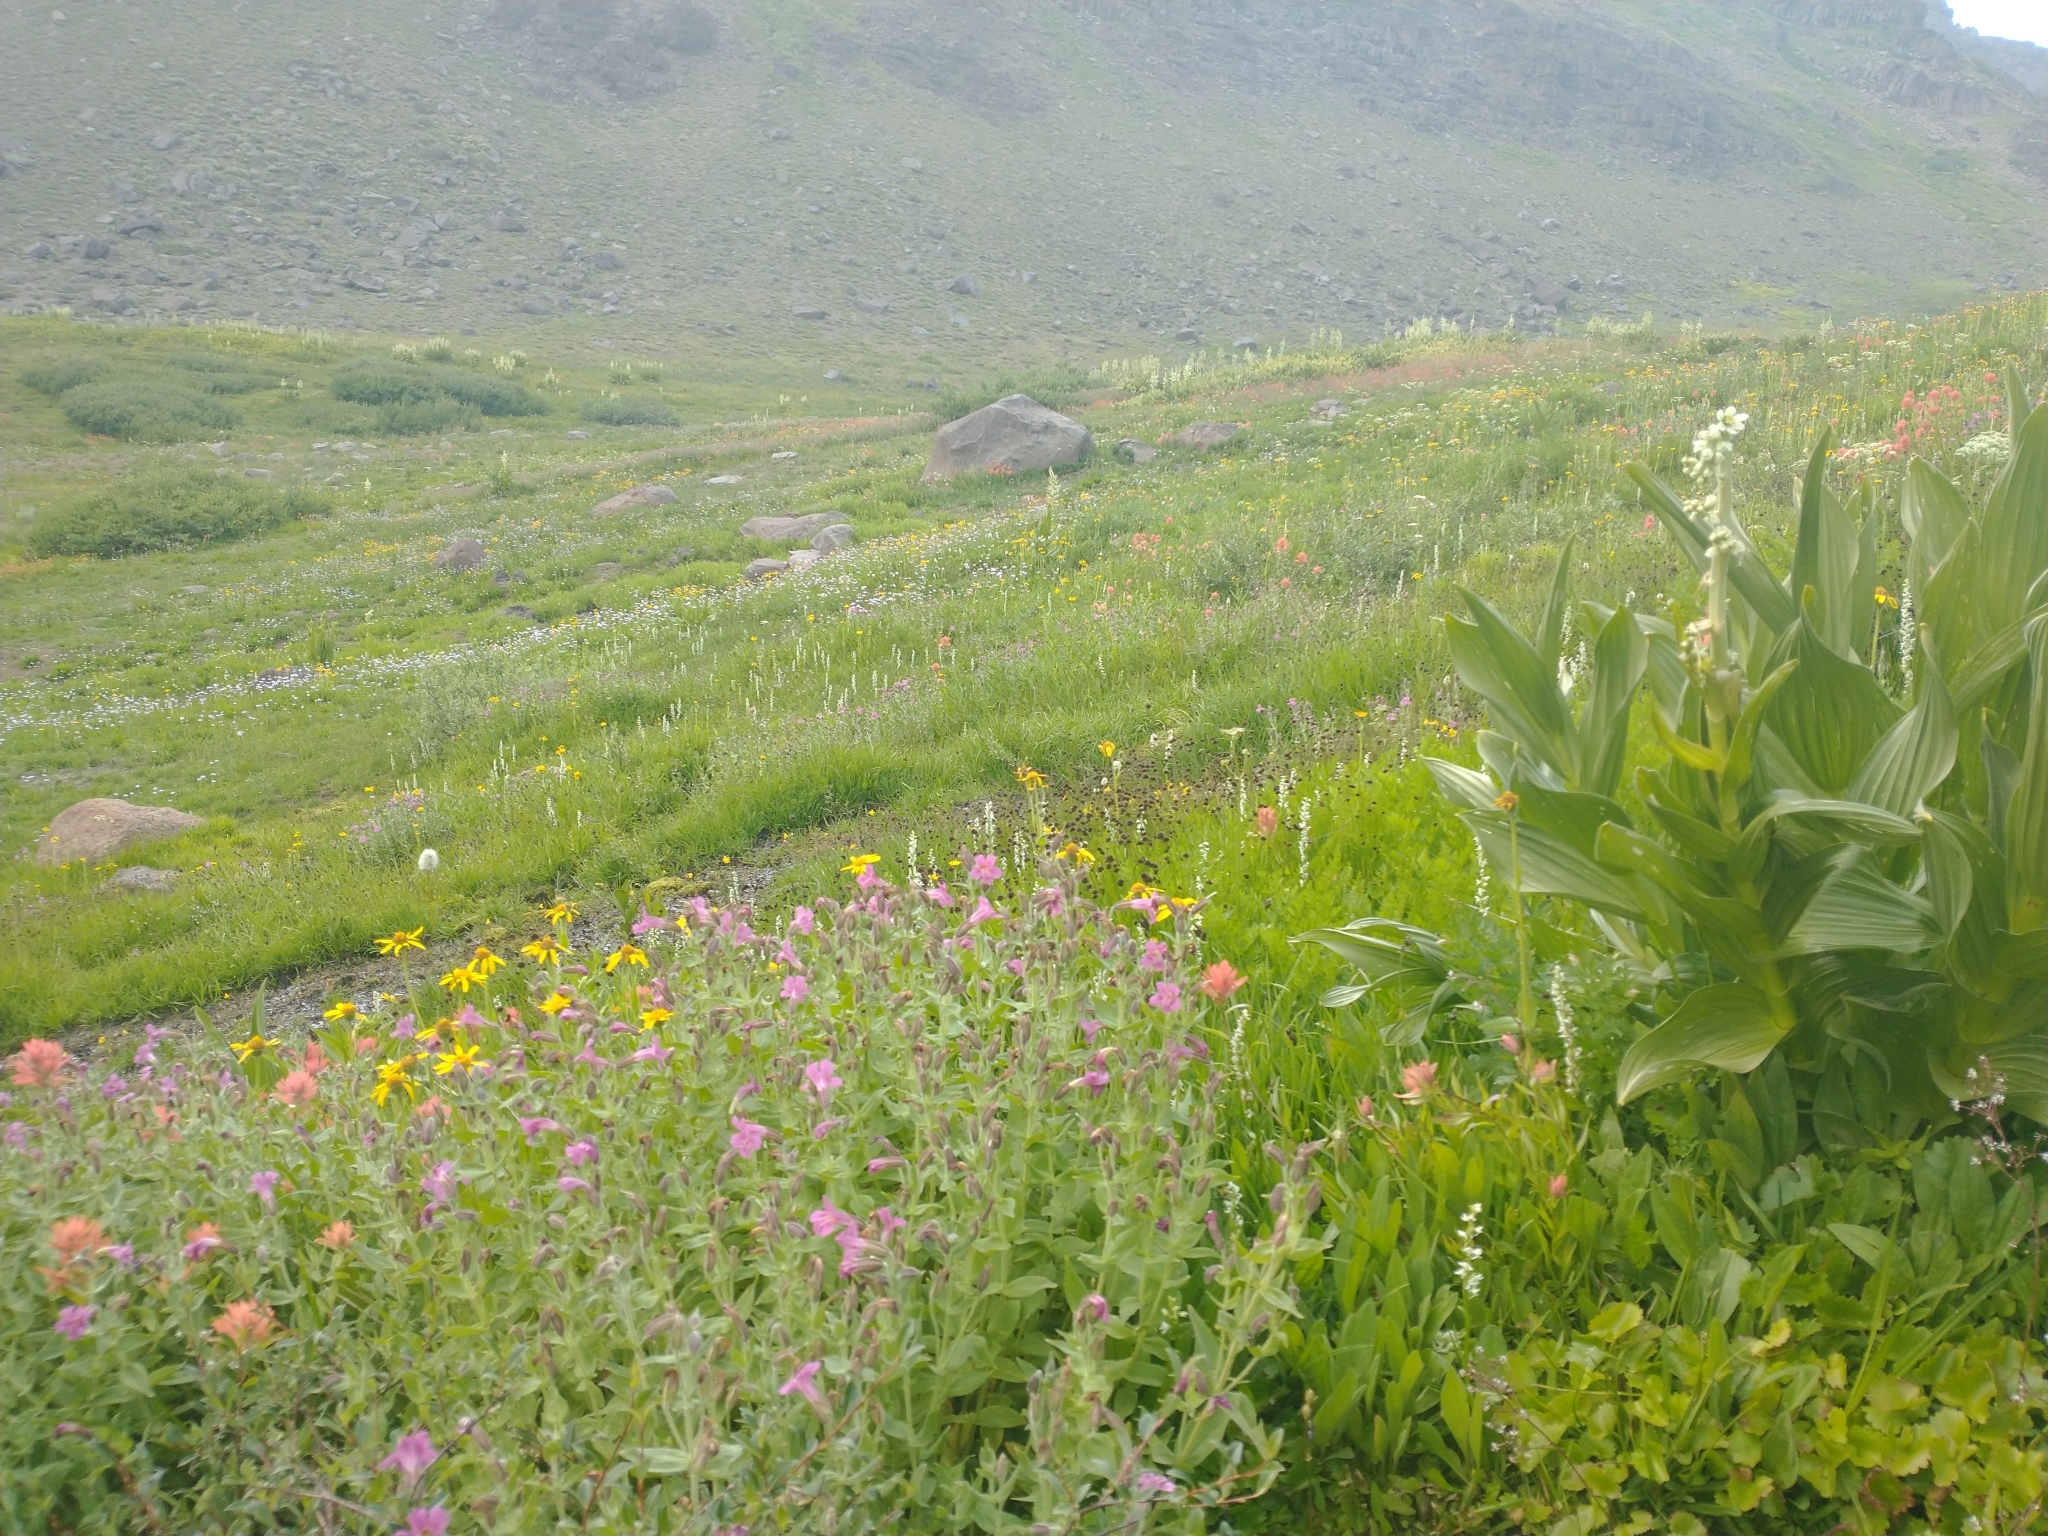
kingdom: Plantae
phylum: Tracheophyta
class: Magnoliopsida
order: Lamiales
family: Phrymaceae
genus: Erythranthe
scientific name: Erythranthe lewisii
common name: Lewis's monkey-flower
